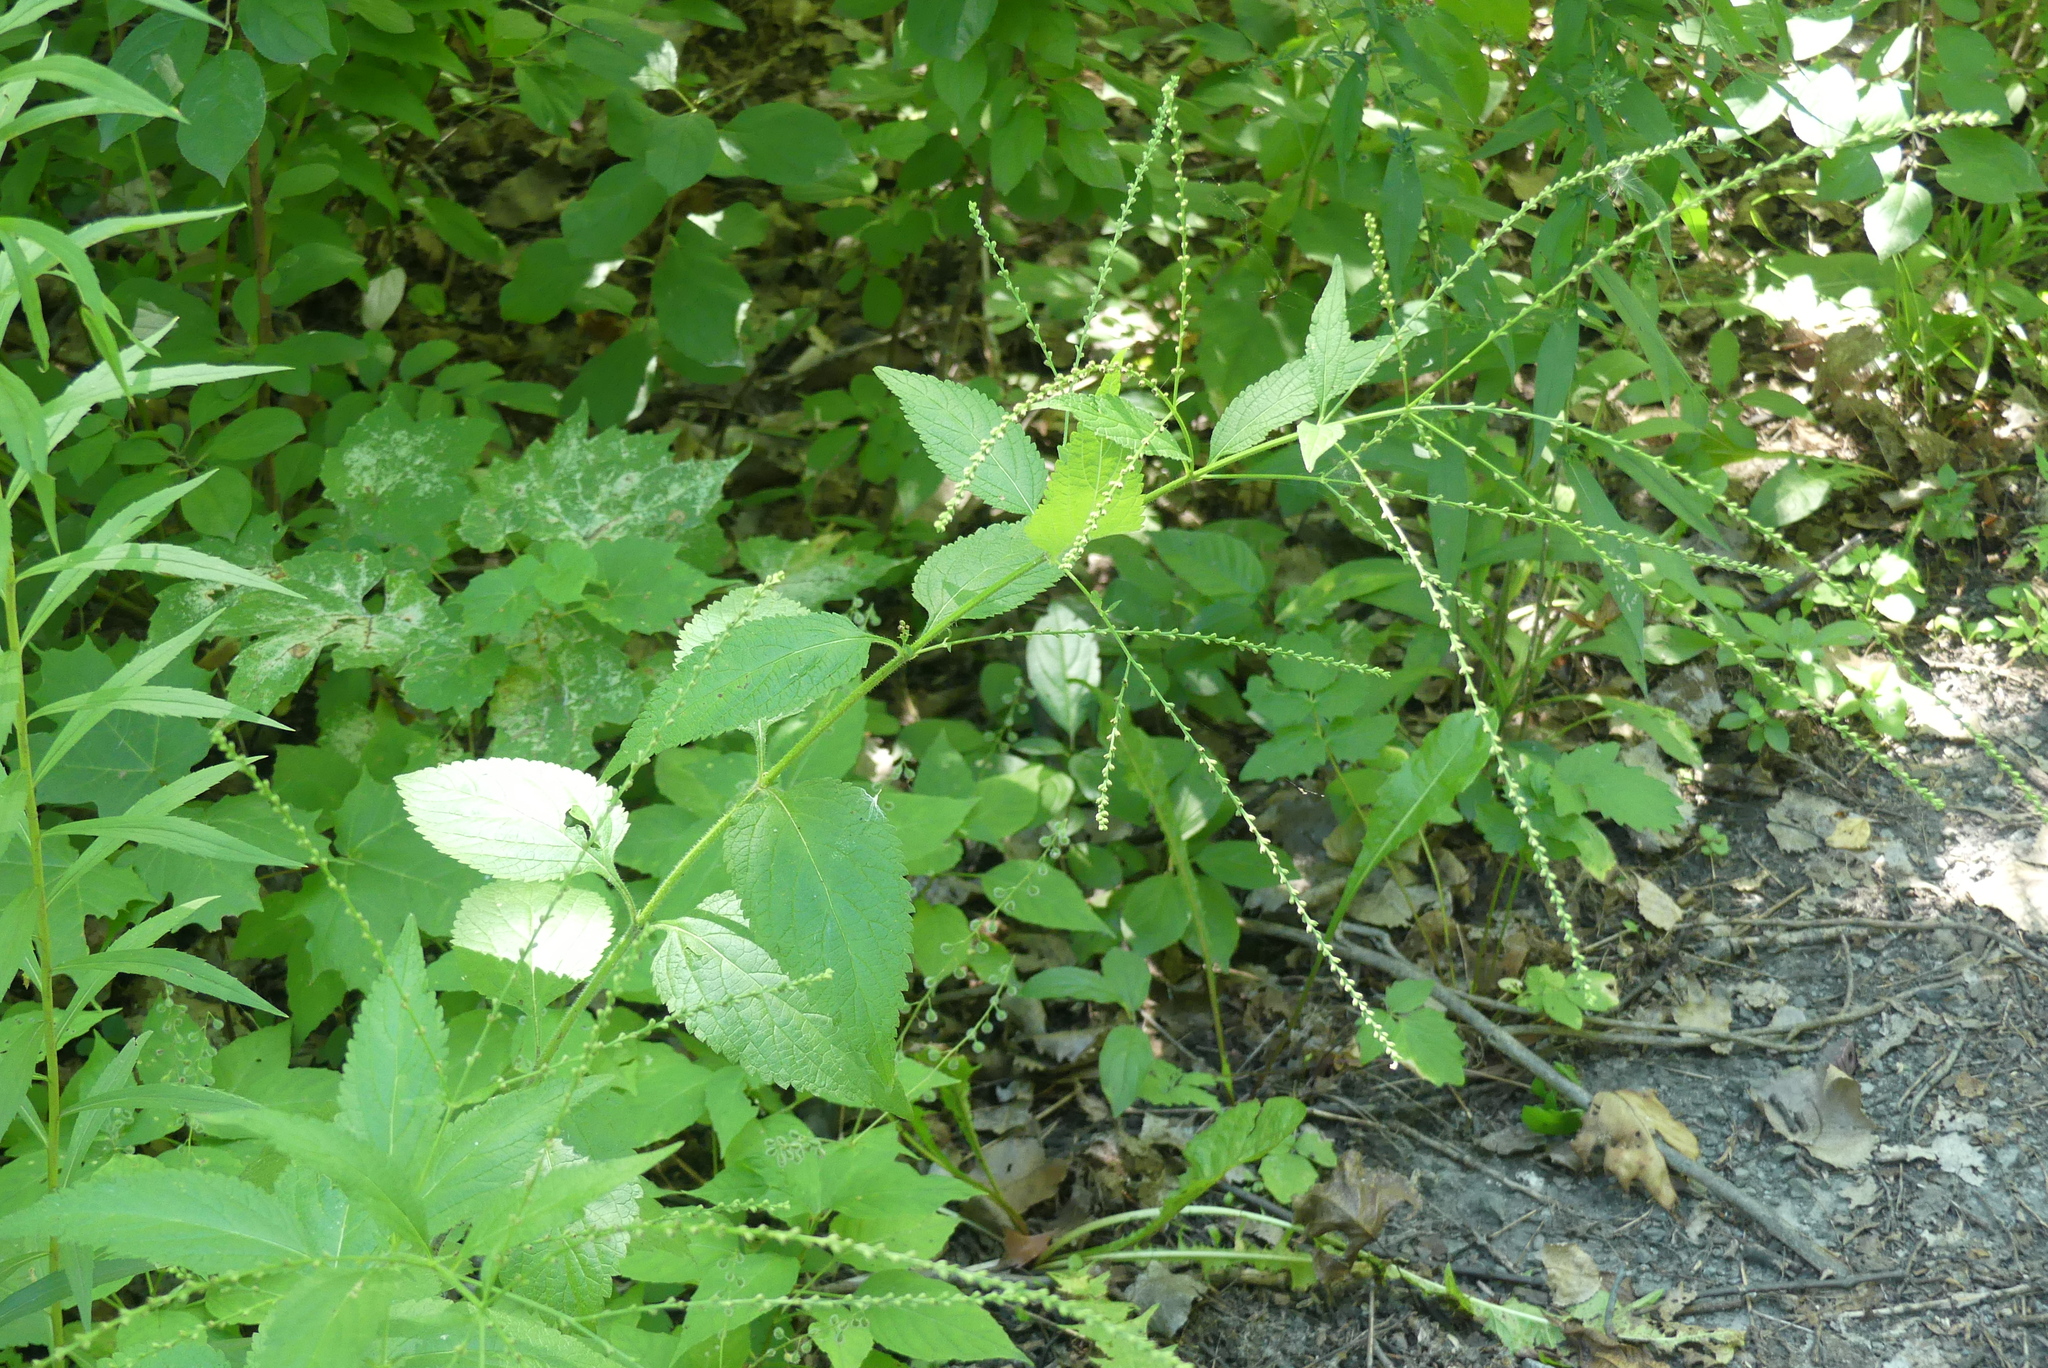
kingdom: Plantae
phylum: Tracheophyta
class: Magnoliopsida
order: Lamiales
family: Verbenaceae
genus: Verbena
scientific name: Verbena urticifolia
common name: Nettle-leaved vervain
